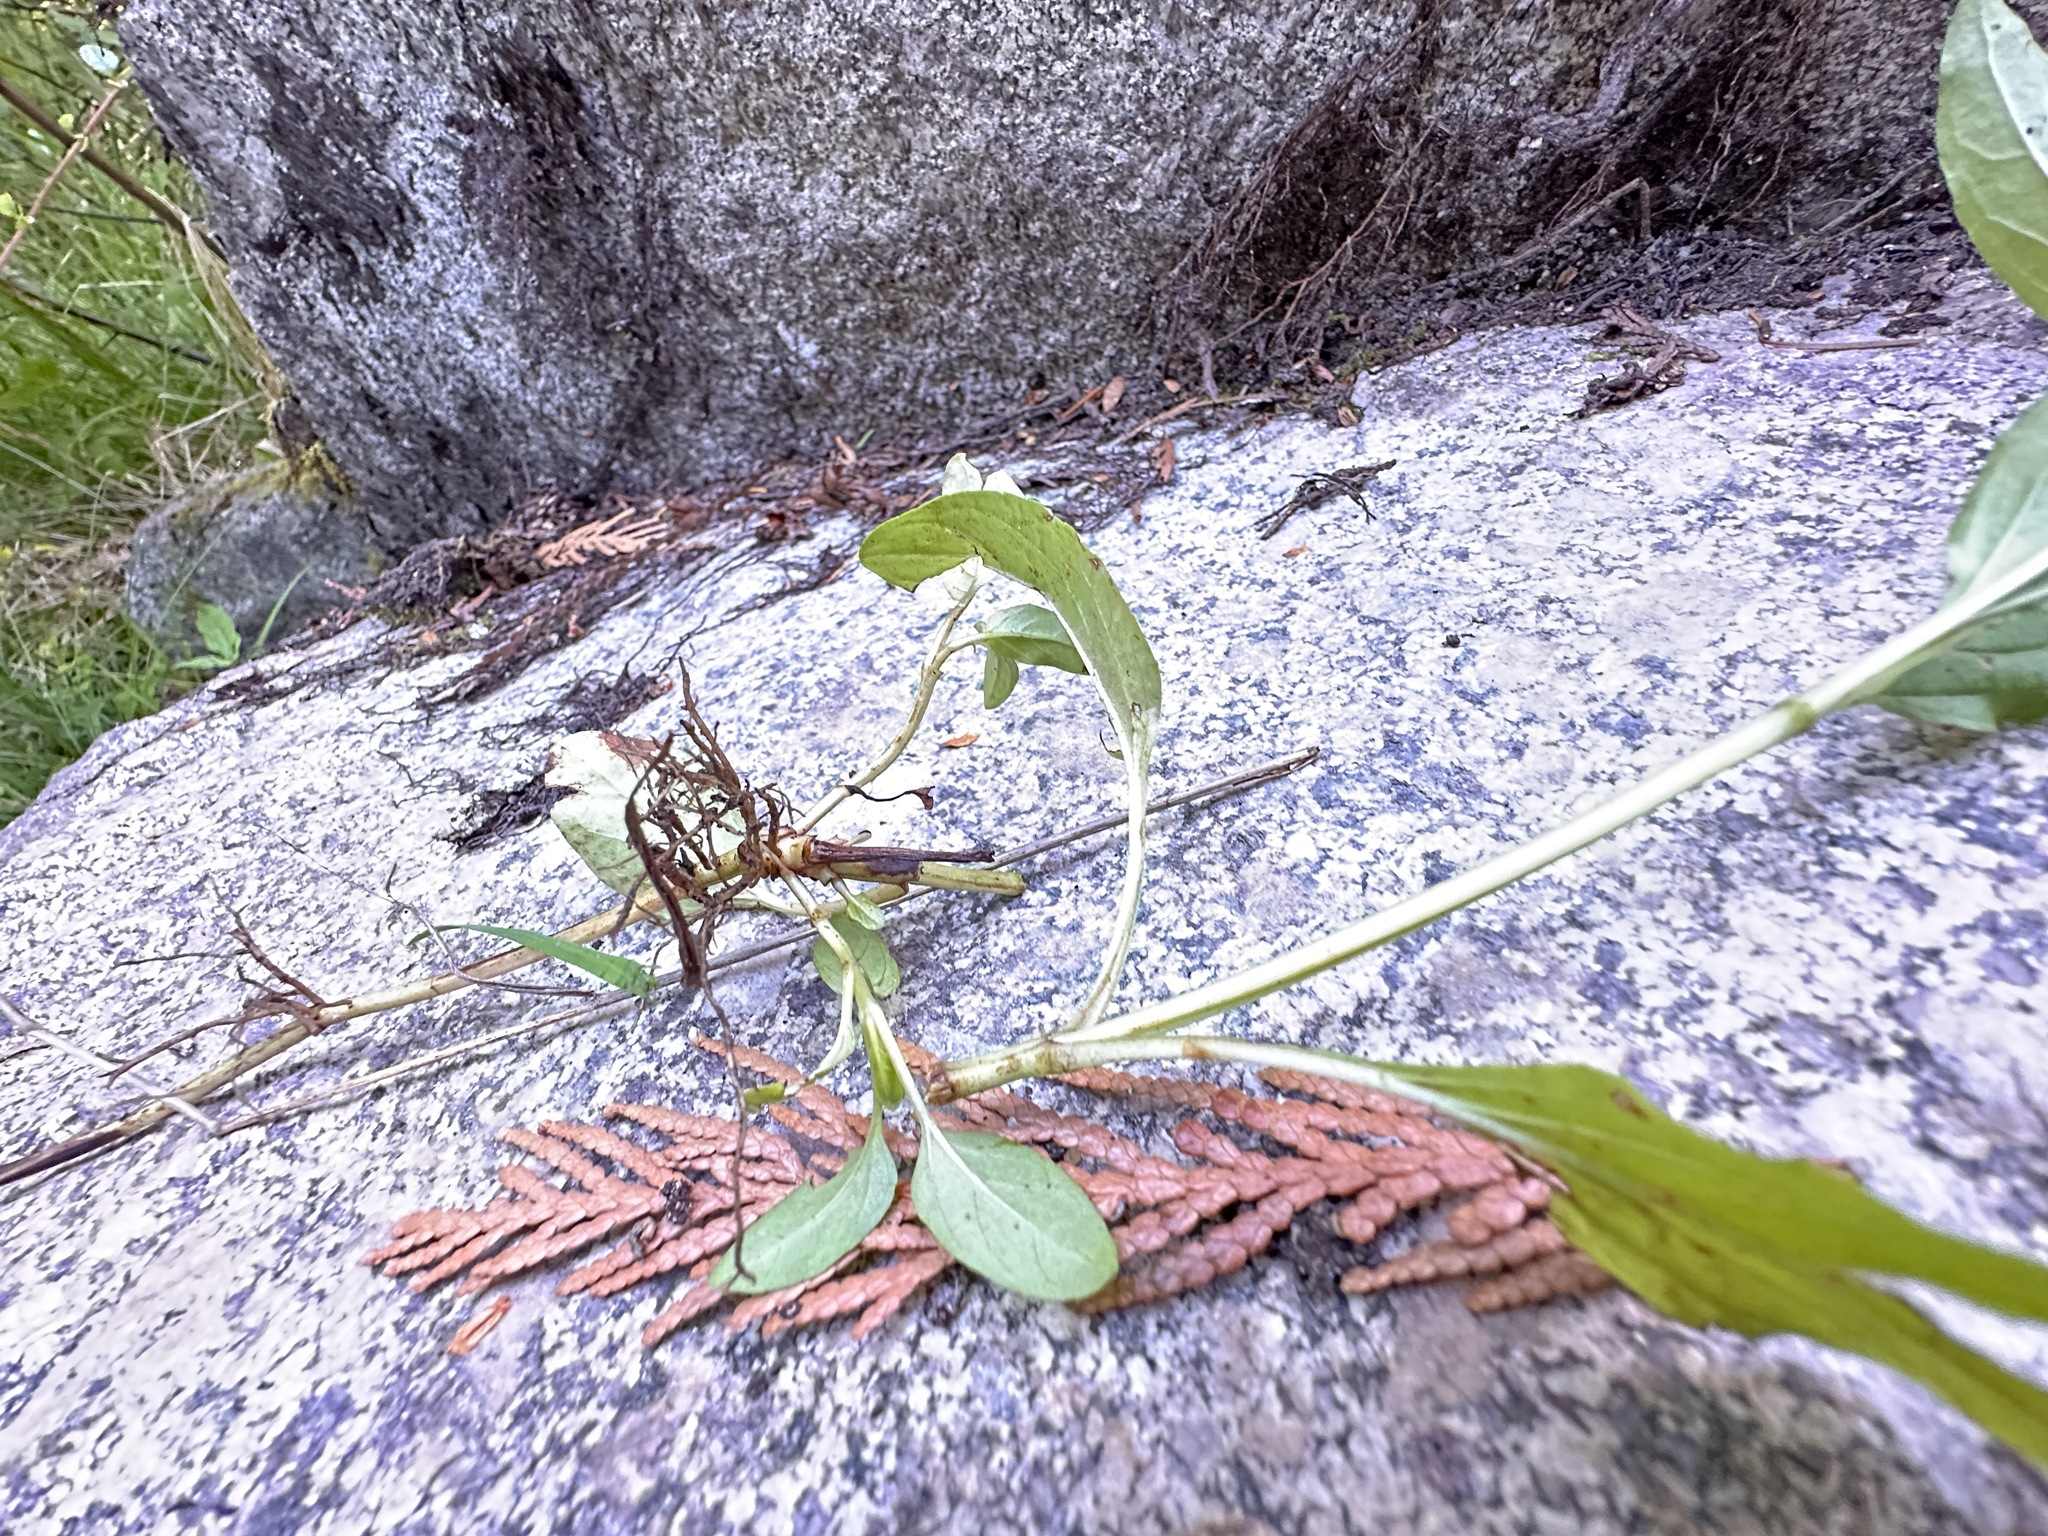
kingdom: Plantae
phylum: Tracheophyta
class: Magnoliopsida
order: Lamiales
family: Lamiaceae
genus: Prunella
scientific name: Prunella vulgaris
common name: Heal-all
